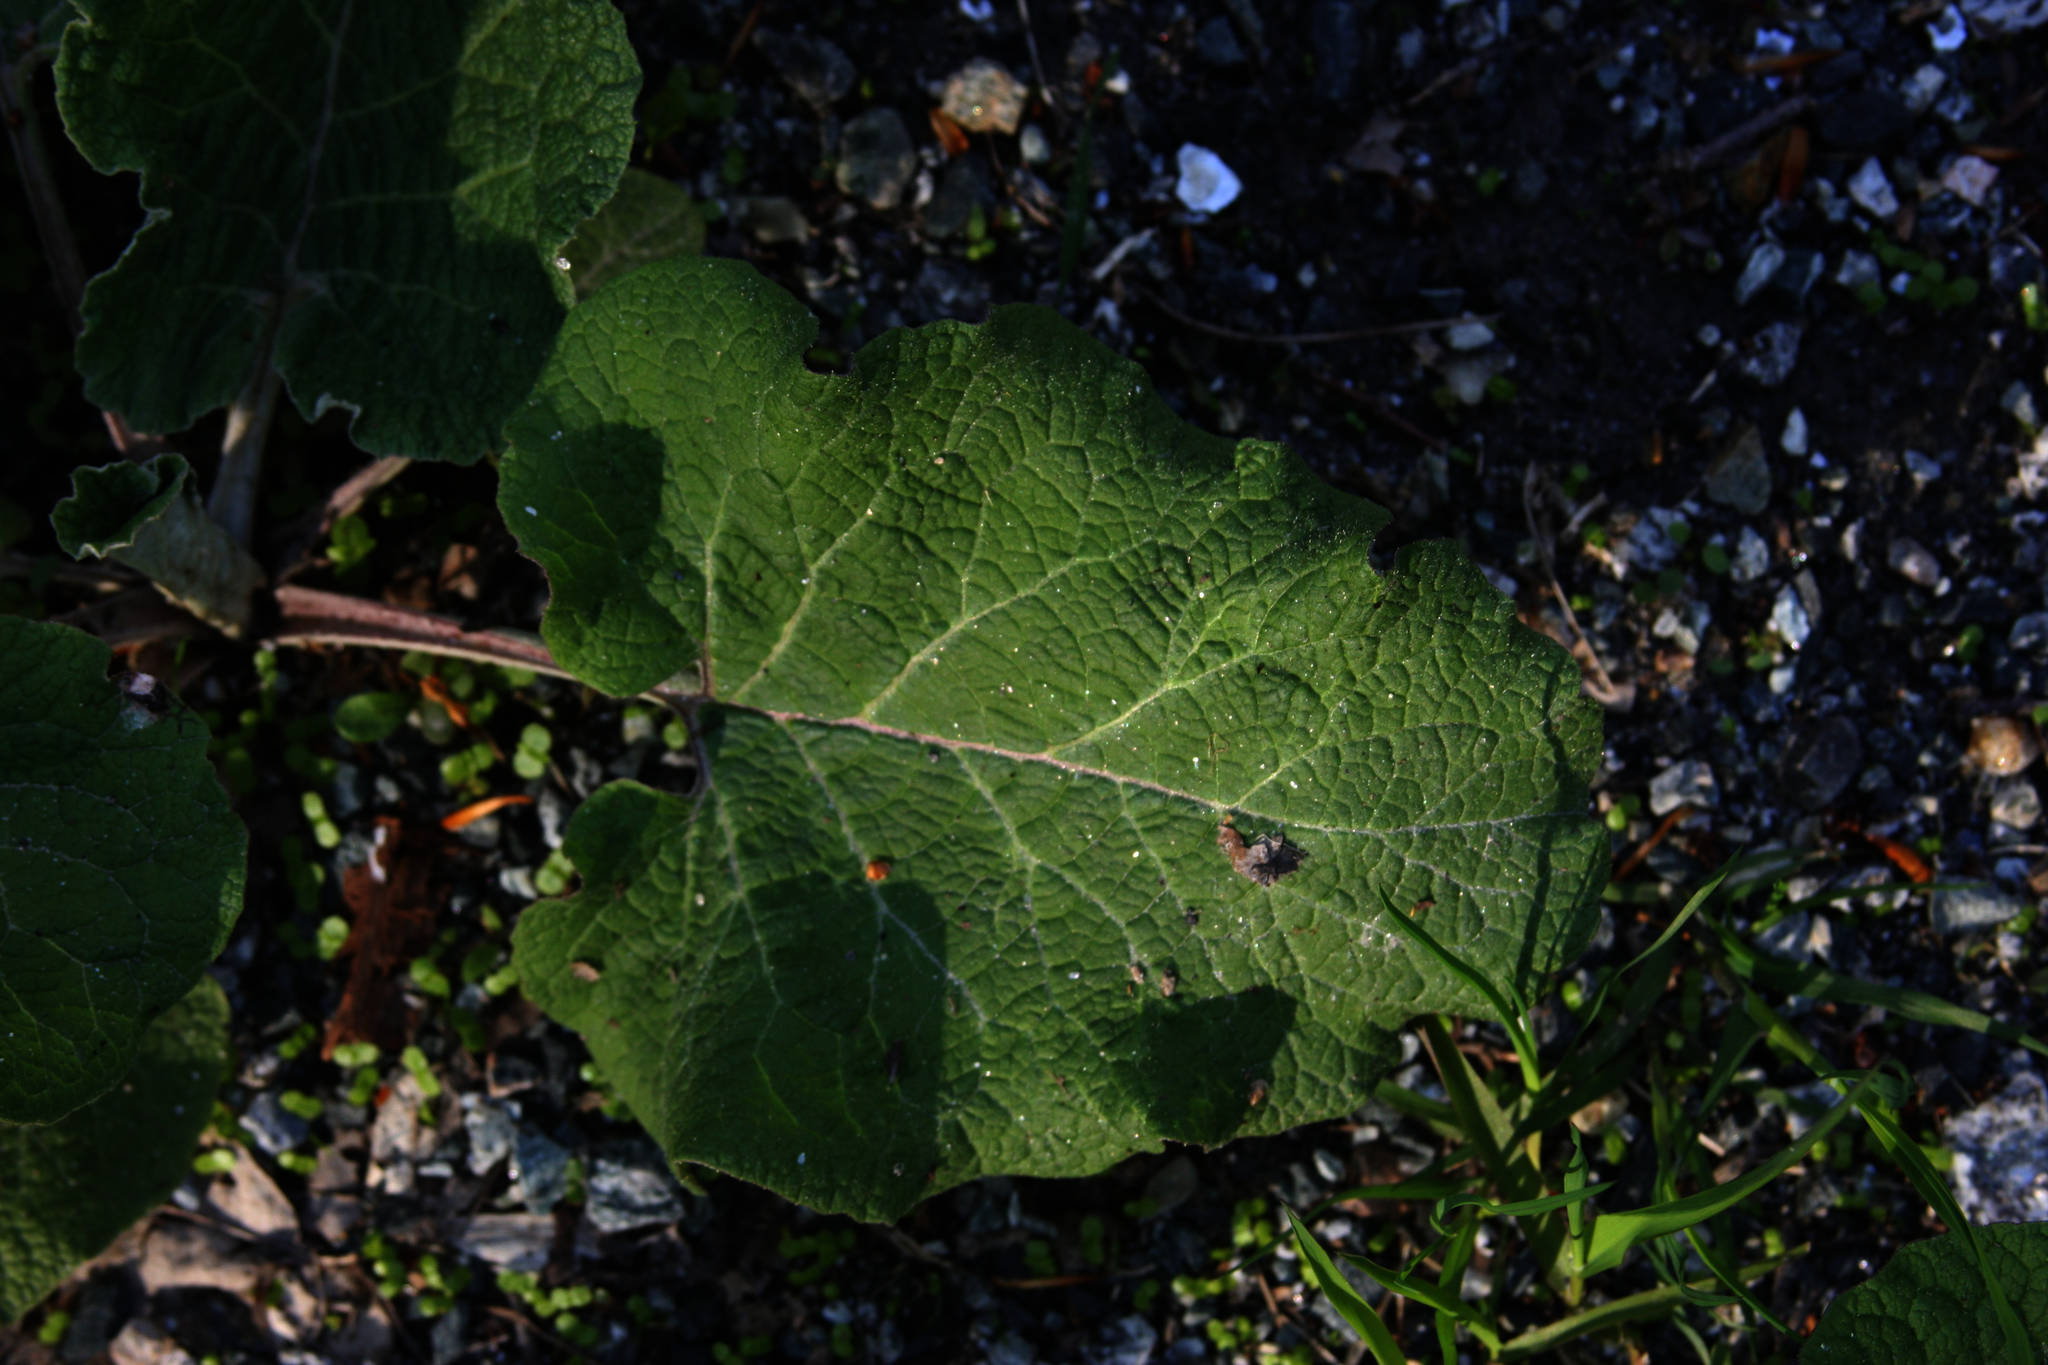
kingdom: Plantae
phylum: Tracheophyta
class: Magnoliopsida
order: Asterales
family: Asteraceae
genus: Arctium
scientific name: Arctium
